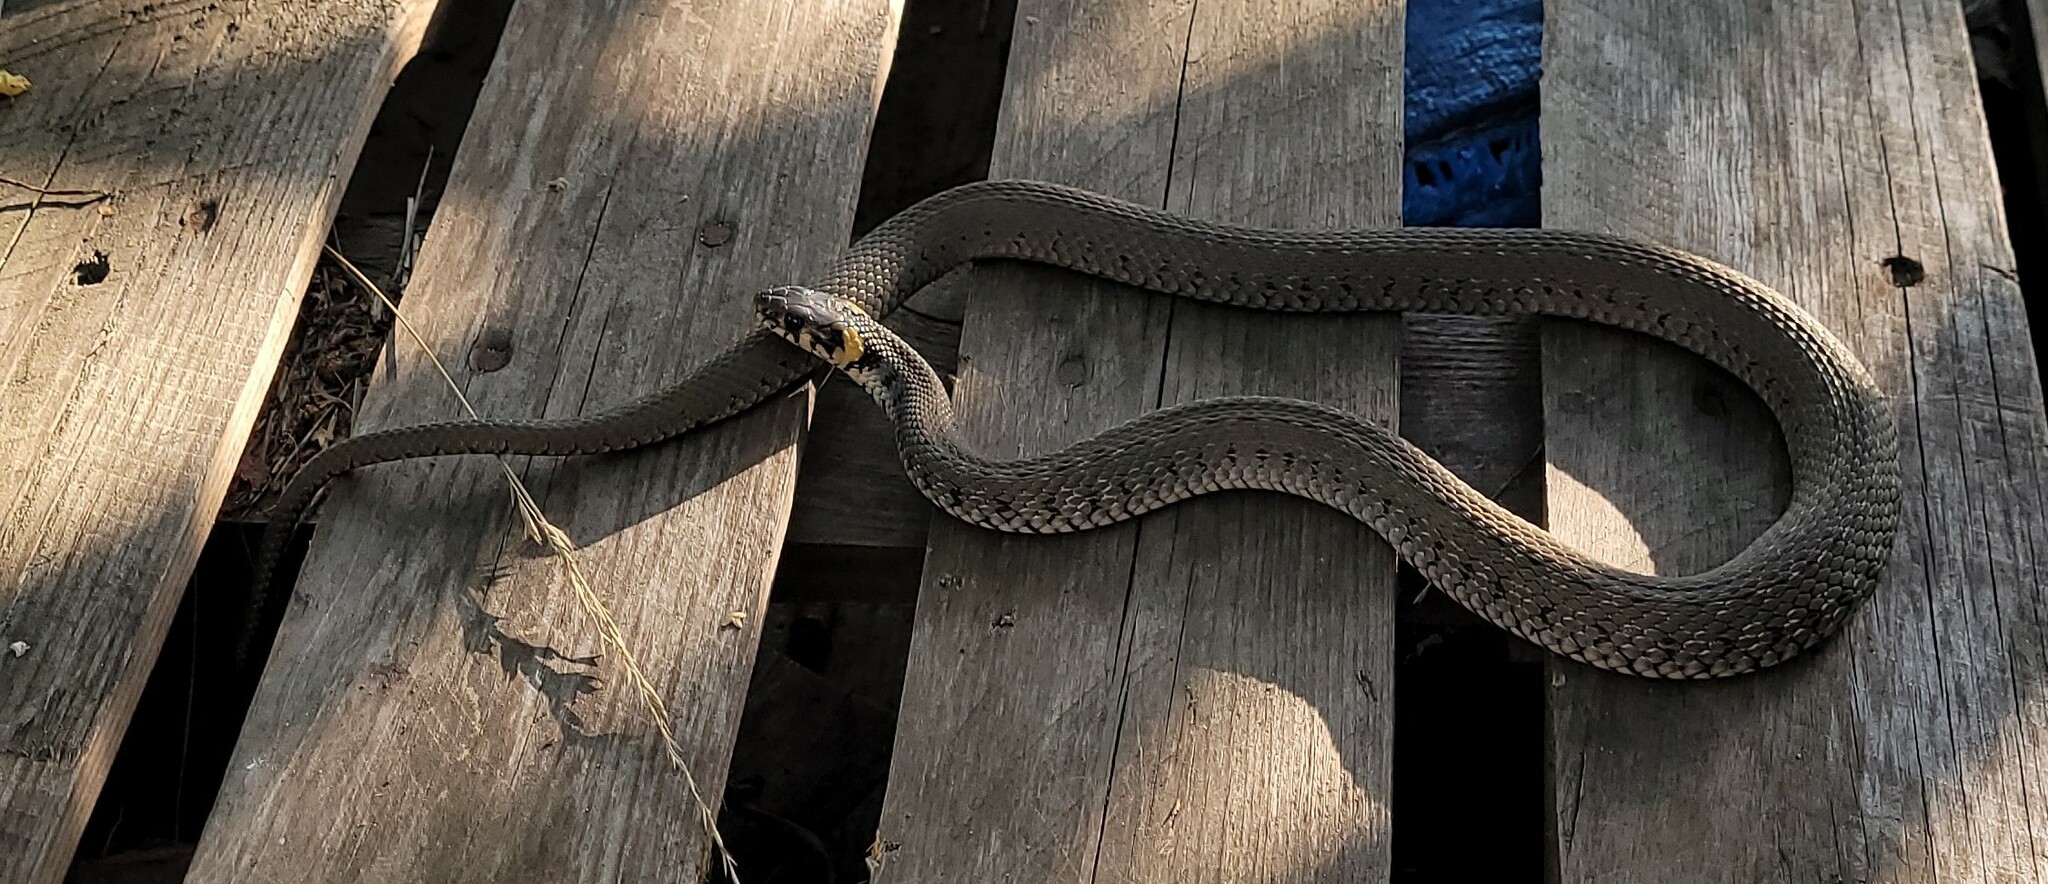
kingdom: Animalia
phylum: Chordata
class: Squamata
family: Colubridae
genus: Natrix
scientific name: Natrix natrix
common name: Grass snake
